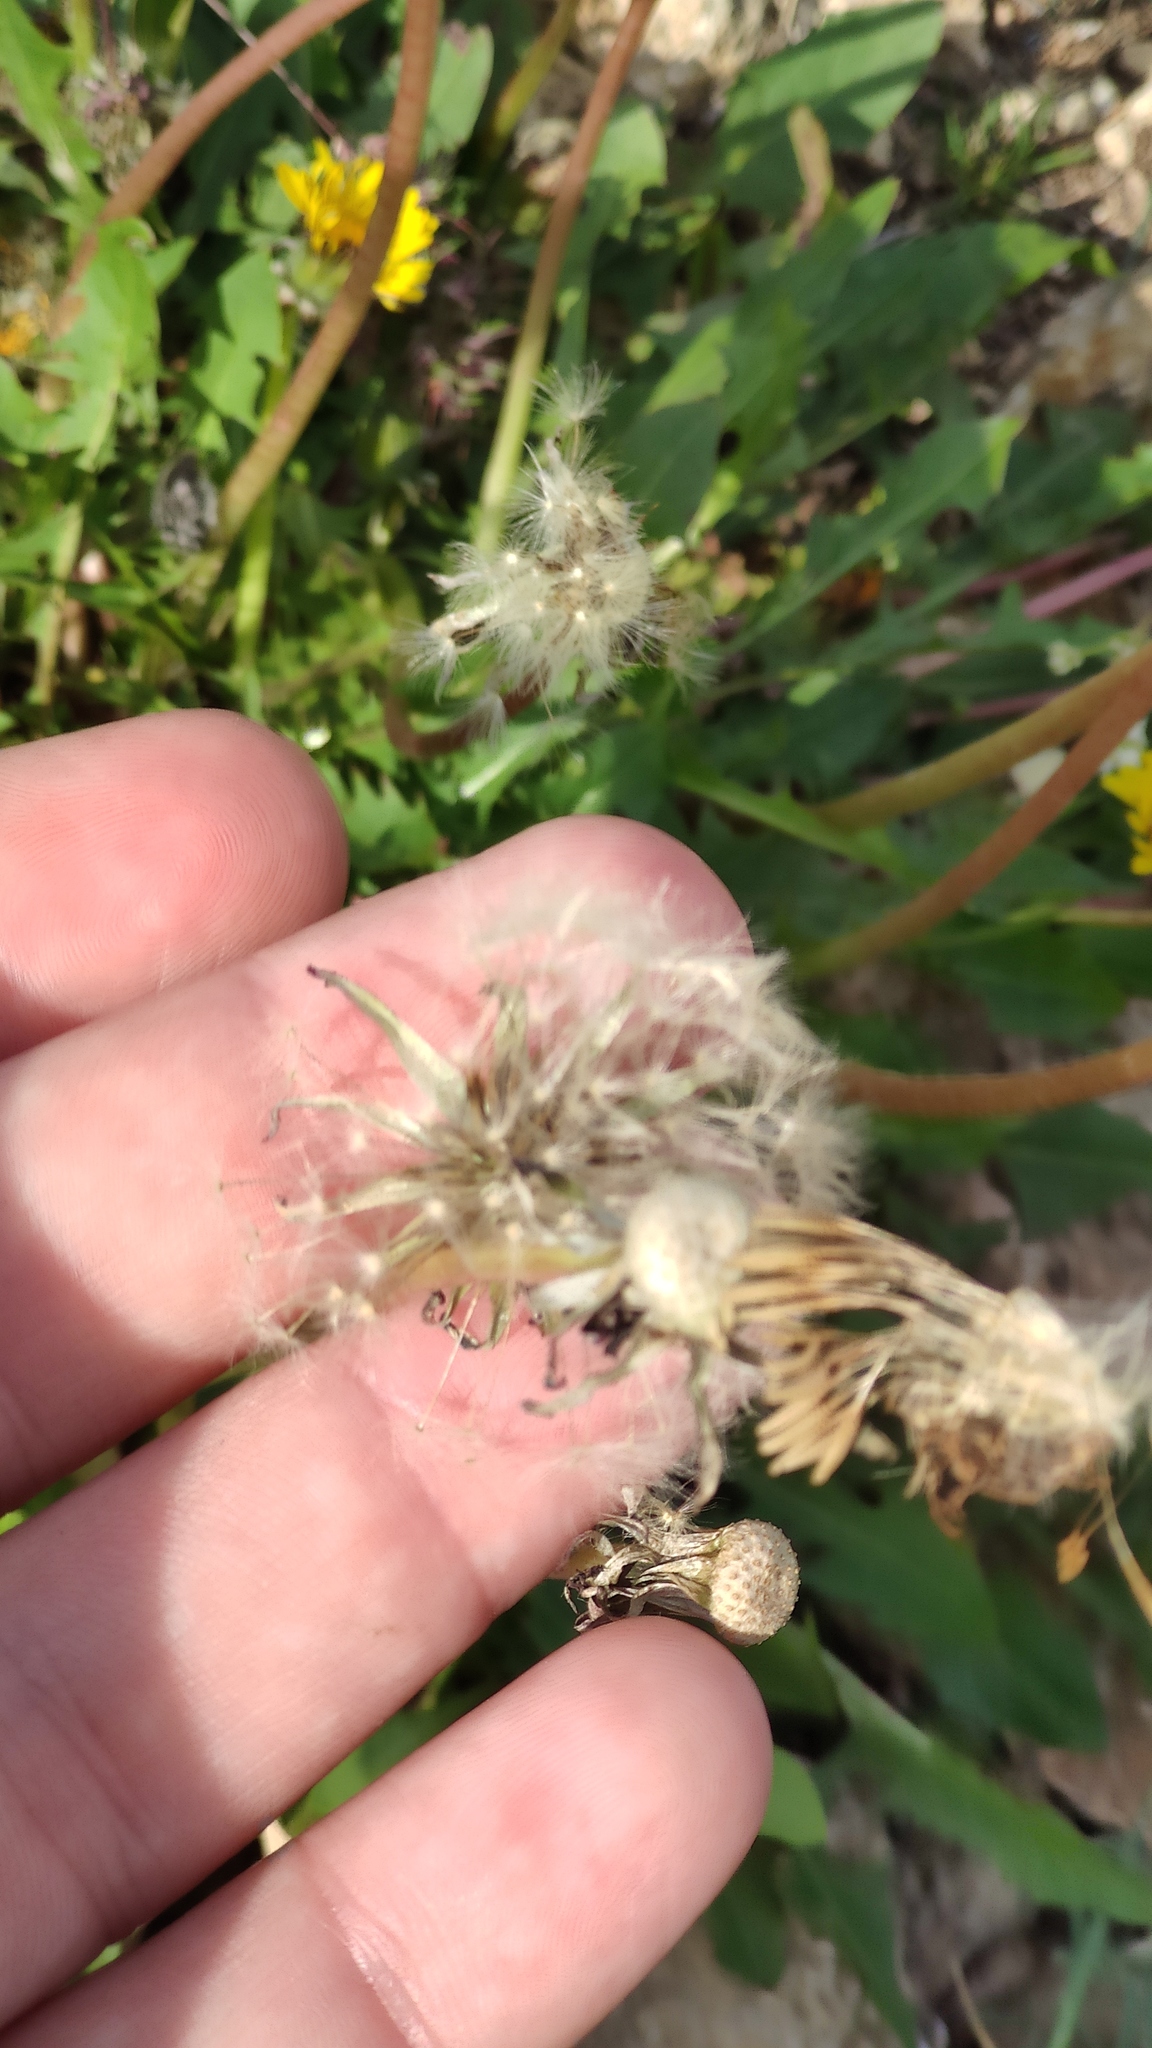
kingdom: Plantae
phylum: Tracheophyta
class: Magnoliopsida
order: Asterales
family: Asteraceae
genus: Taraxacum
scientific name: Taraxacum officinale
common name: Common dandelion
